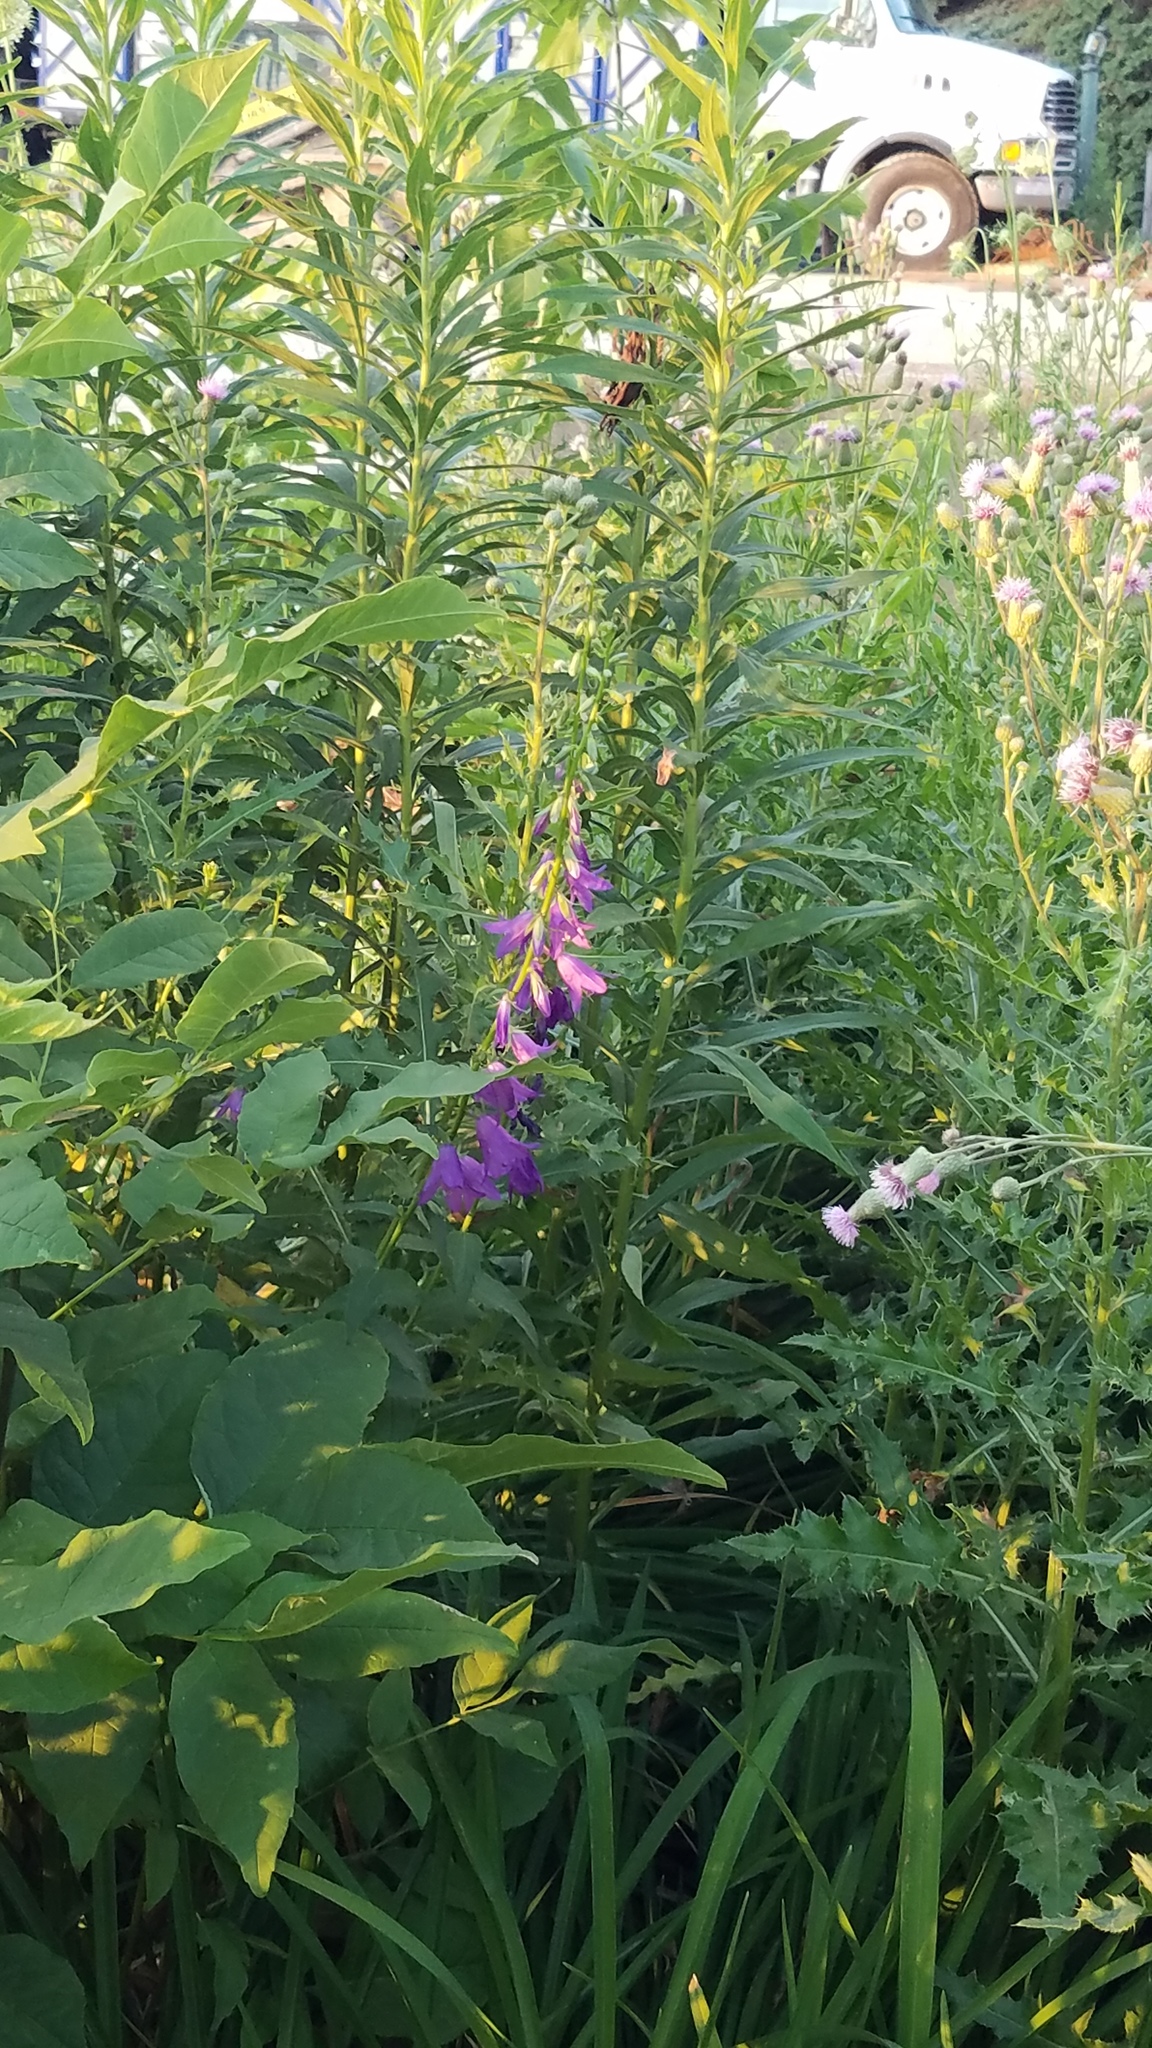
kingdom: Plantae
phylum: Tracheophyta
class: Magnoliopsida
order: Asterales
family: Campanulaceae
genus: Campanula
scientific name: Campanula rapunculoides
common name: Creeping bellflower
